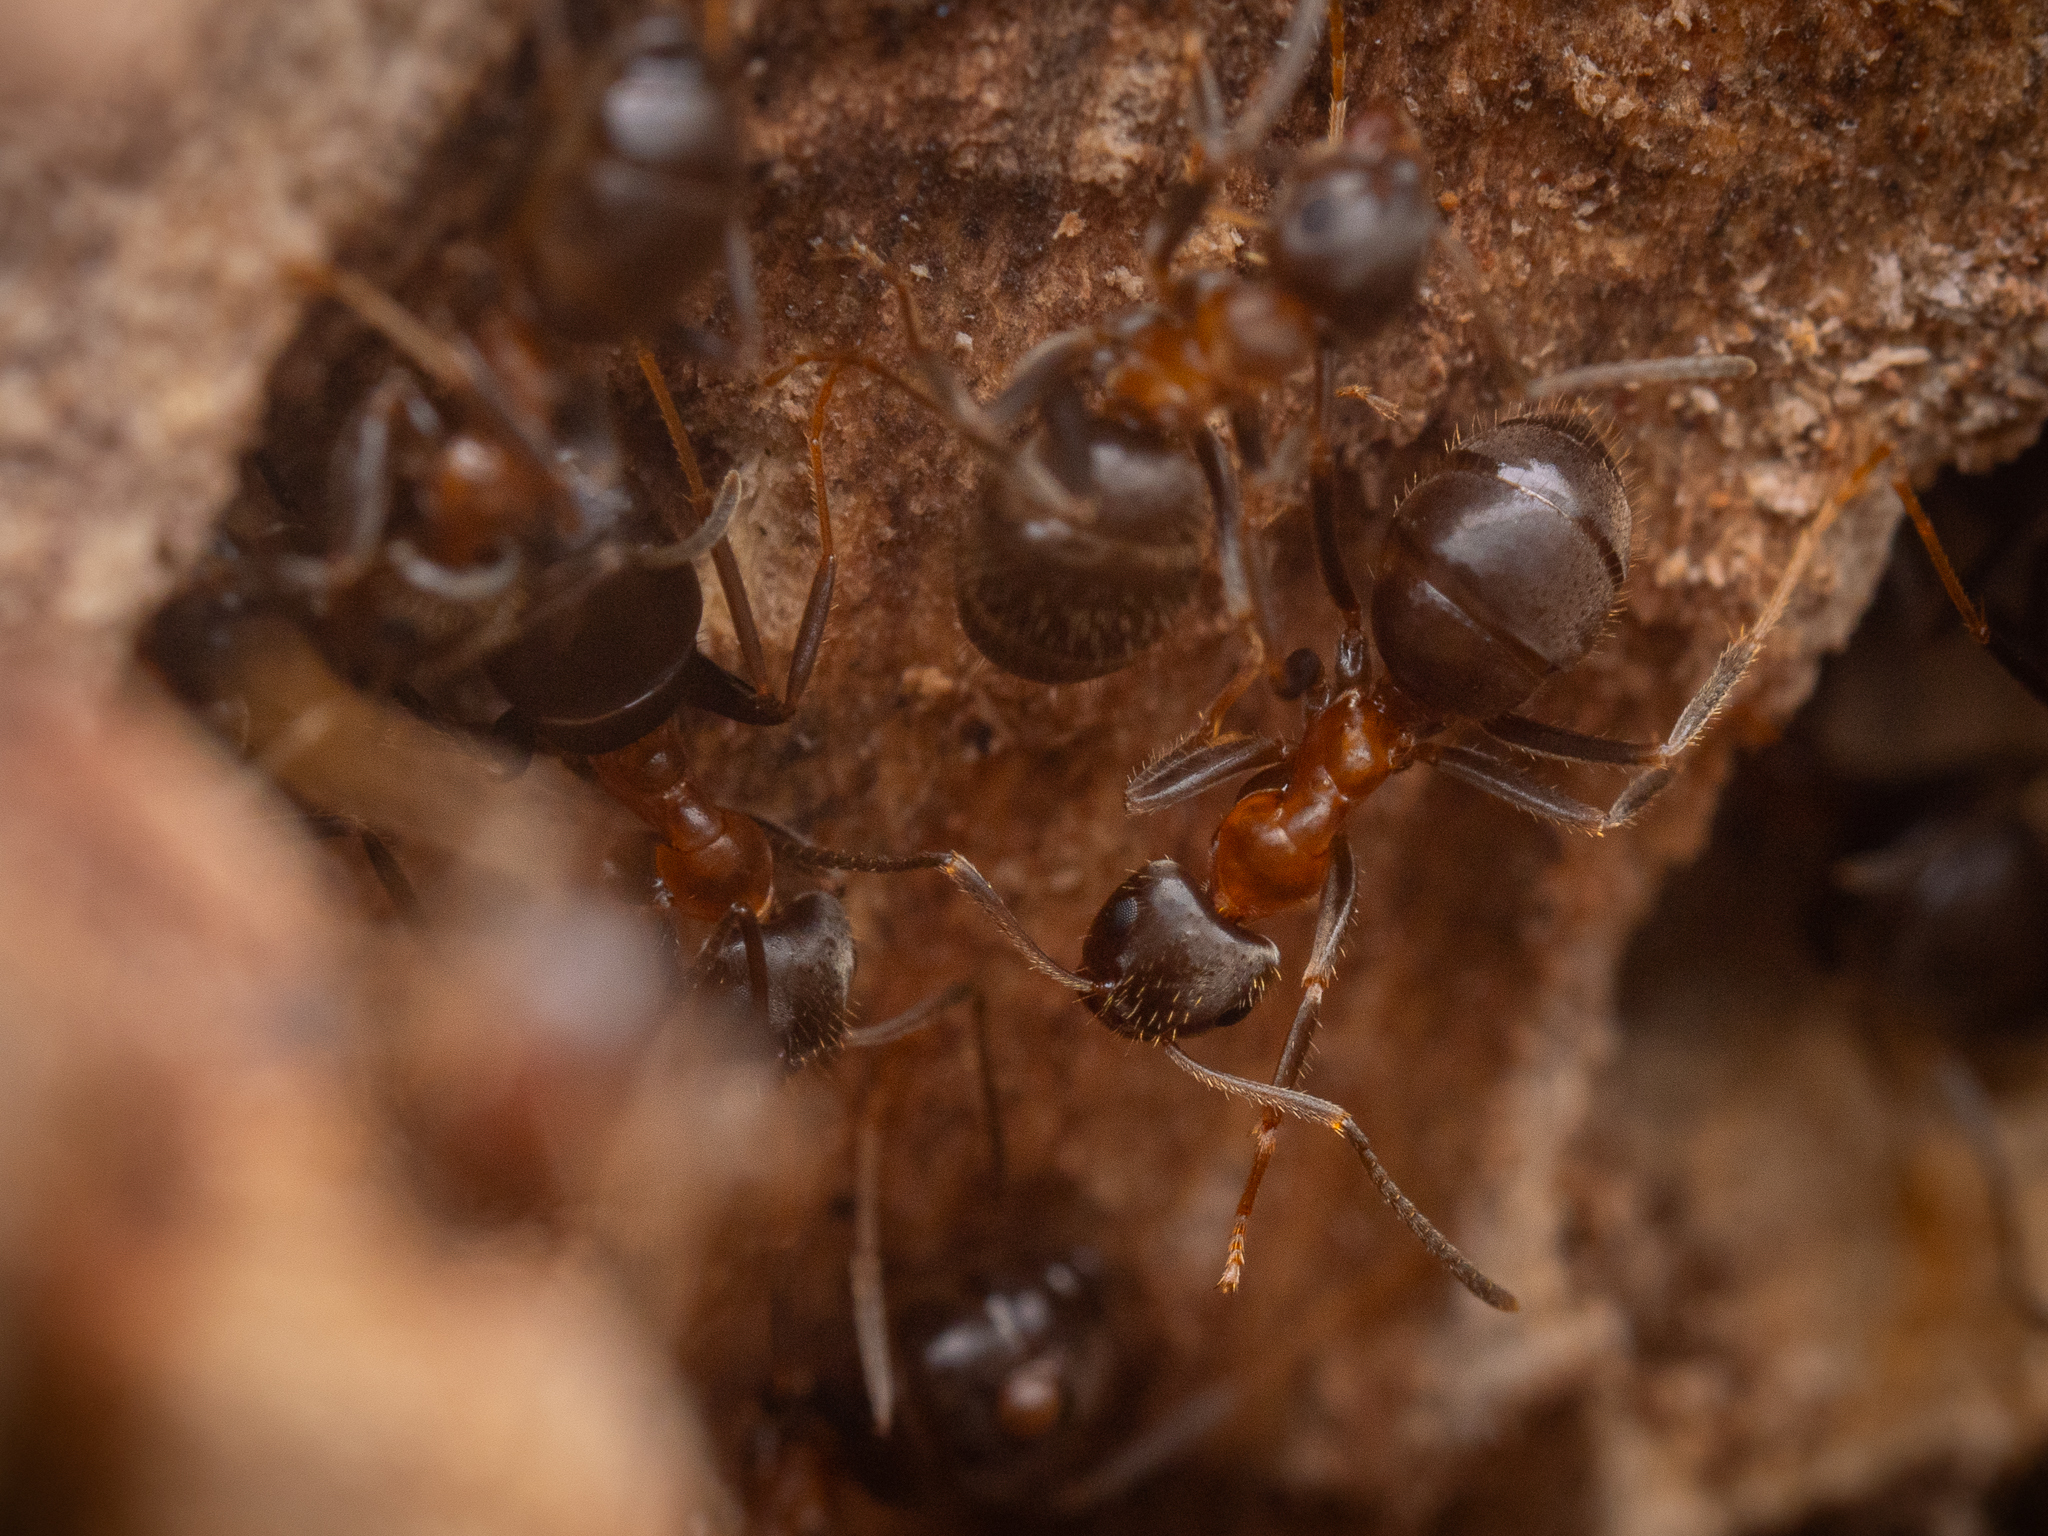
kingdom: Animalia
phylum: Arthropoda
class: Insecta
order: Hymenoptera
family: Formicidae
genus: Lasius
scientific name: Lasius emarginatus
